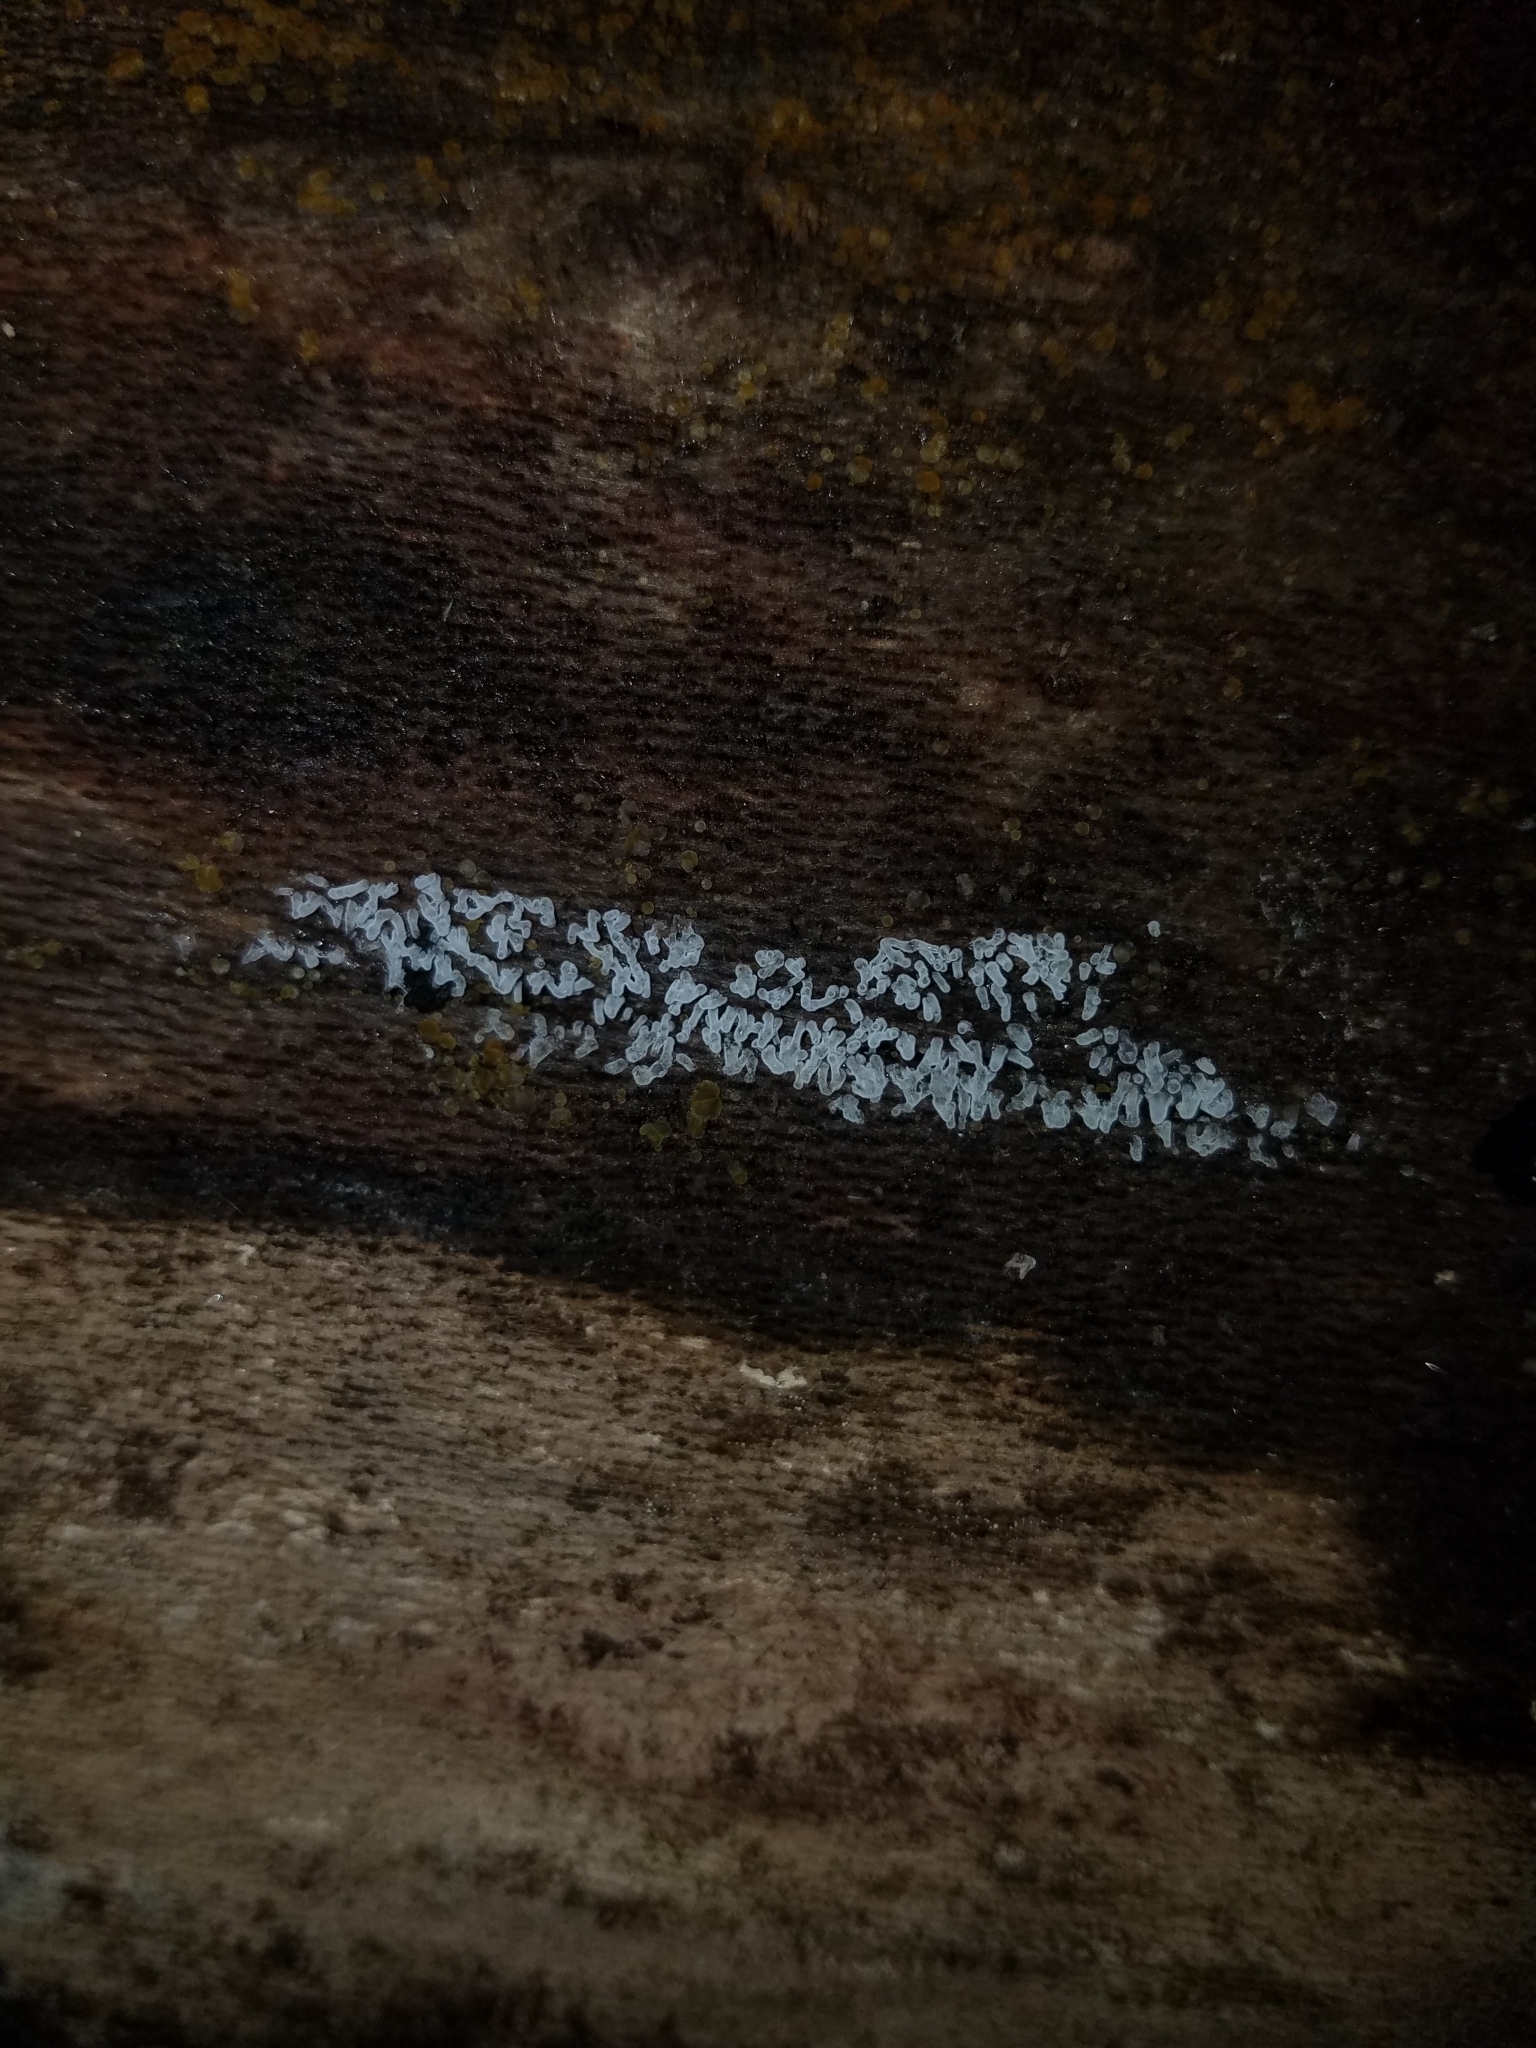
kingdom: Protozoa
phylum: Mycetozoa
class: Protosteliomycetes
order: Ceratiomyxales
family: Ceratiomyxaceae
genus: Ceratiomyxa
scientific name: Ceratiomyxa fruticulosa
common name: Honeycomb coral slime mold
